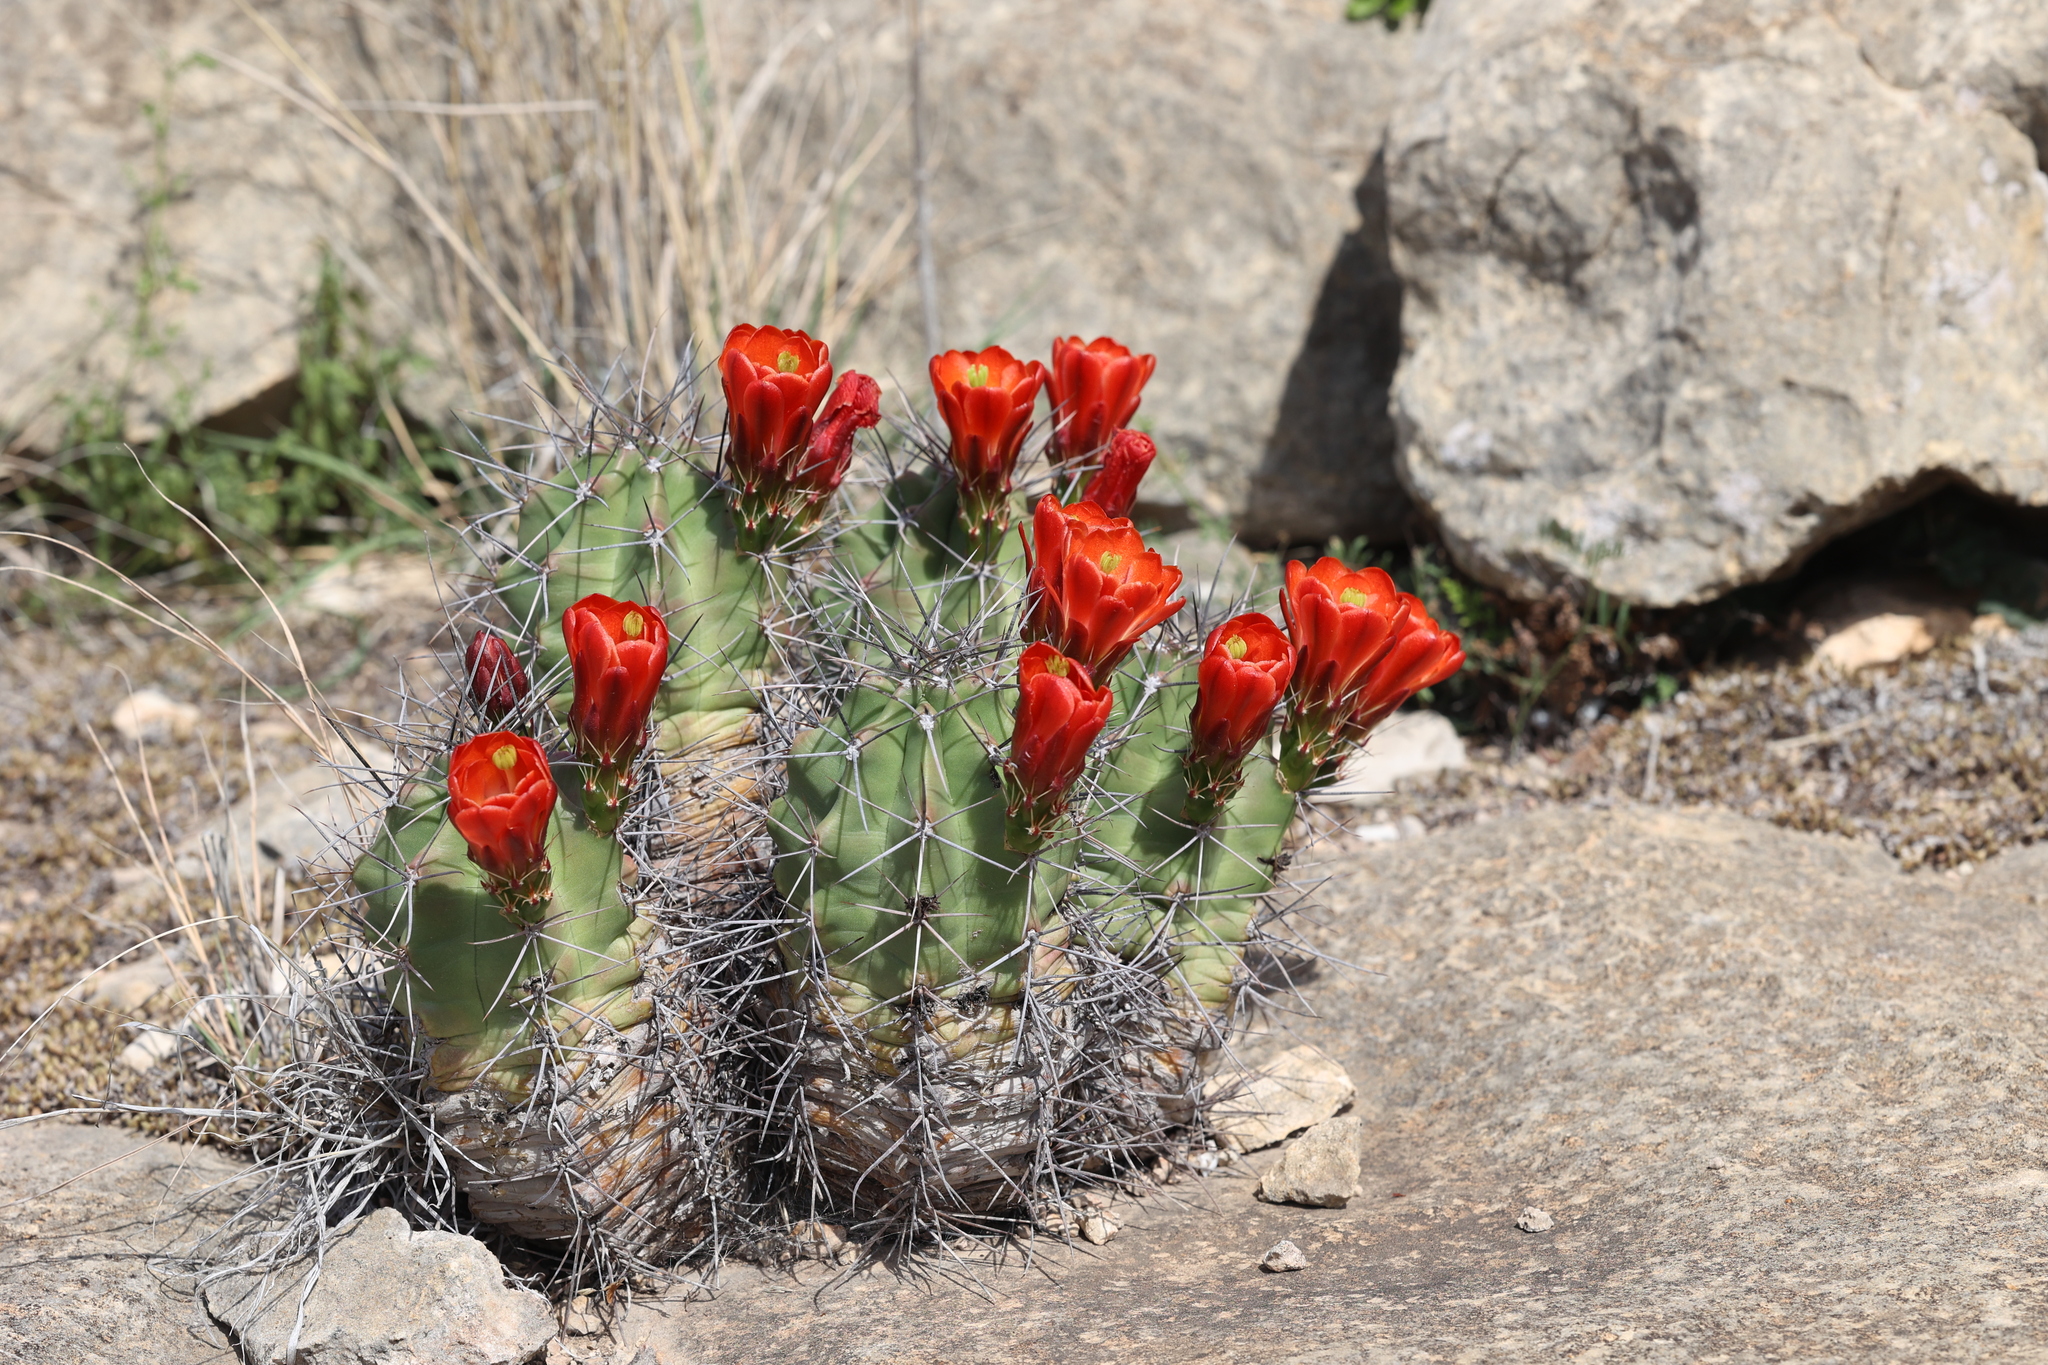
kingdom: Plantae
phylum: Tracheophyta
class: Magnoliopsida
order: Caryophyllales
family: Cactaceae
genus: Echinocereus
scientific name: Echinocereus coccineus
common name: Scarlet hedgehog cactus
